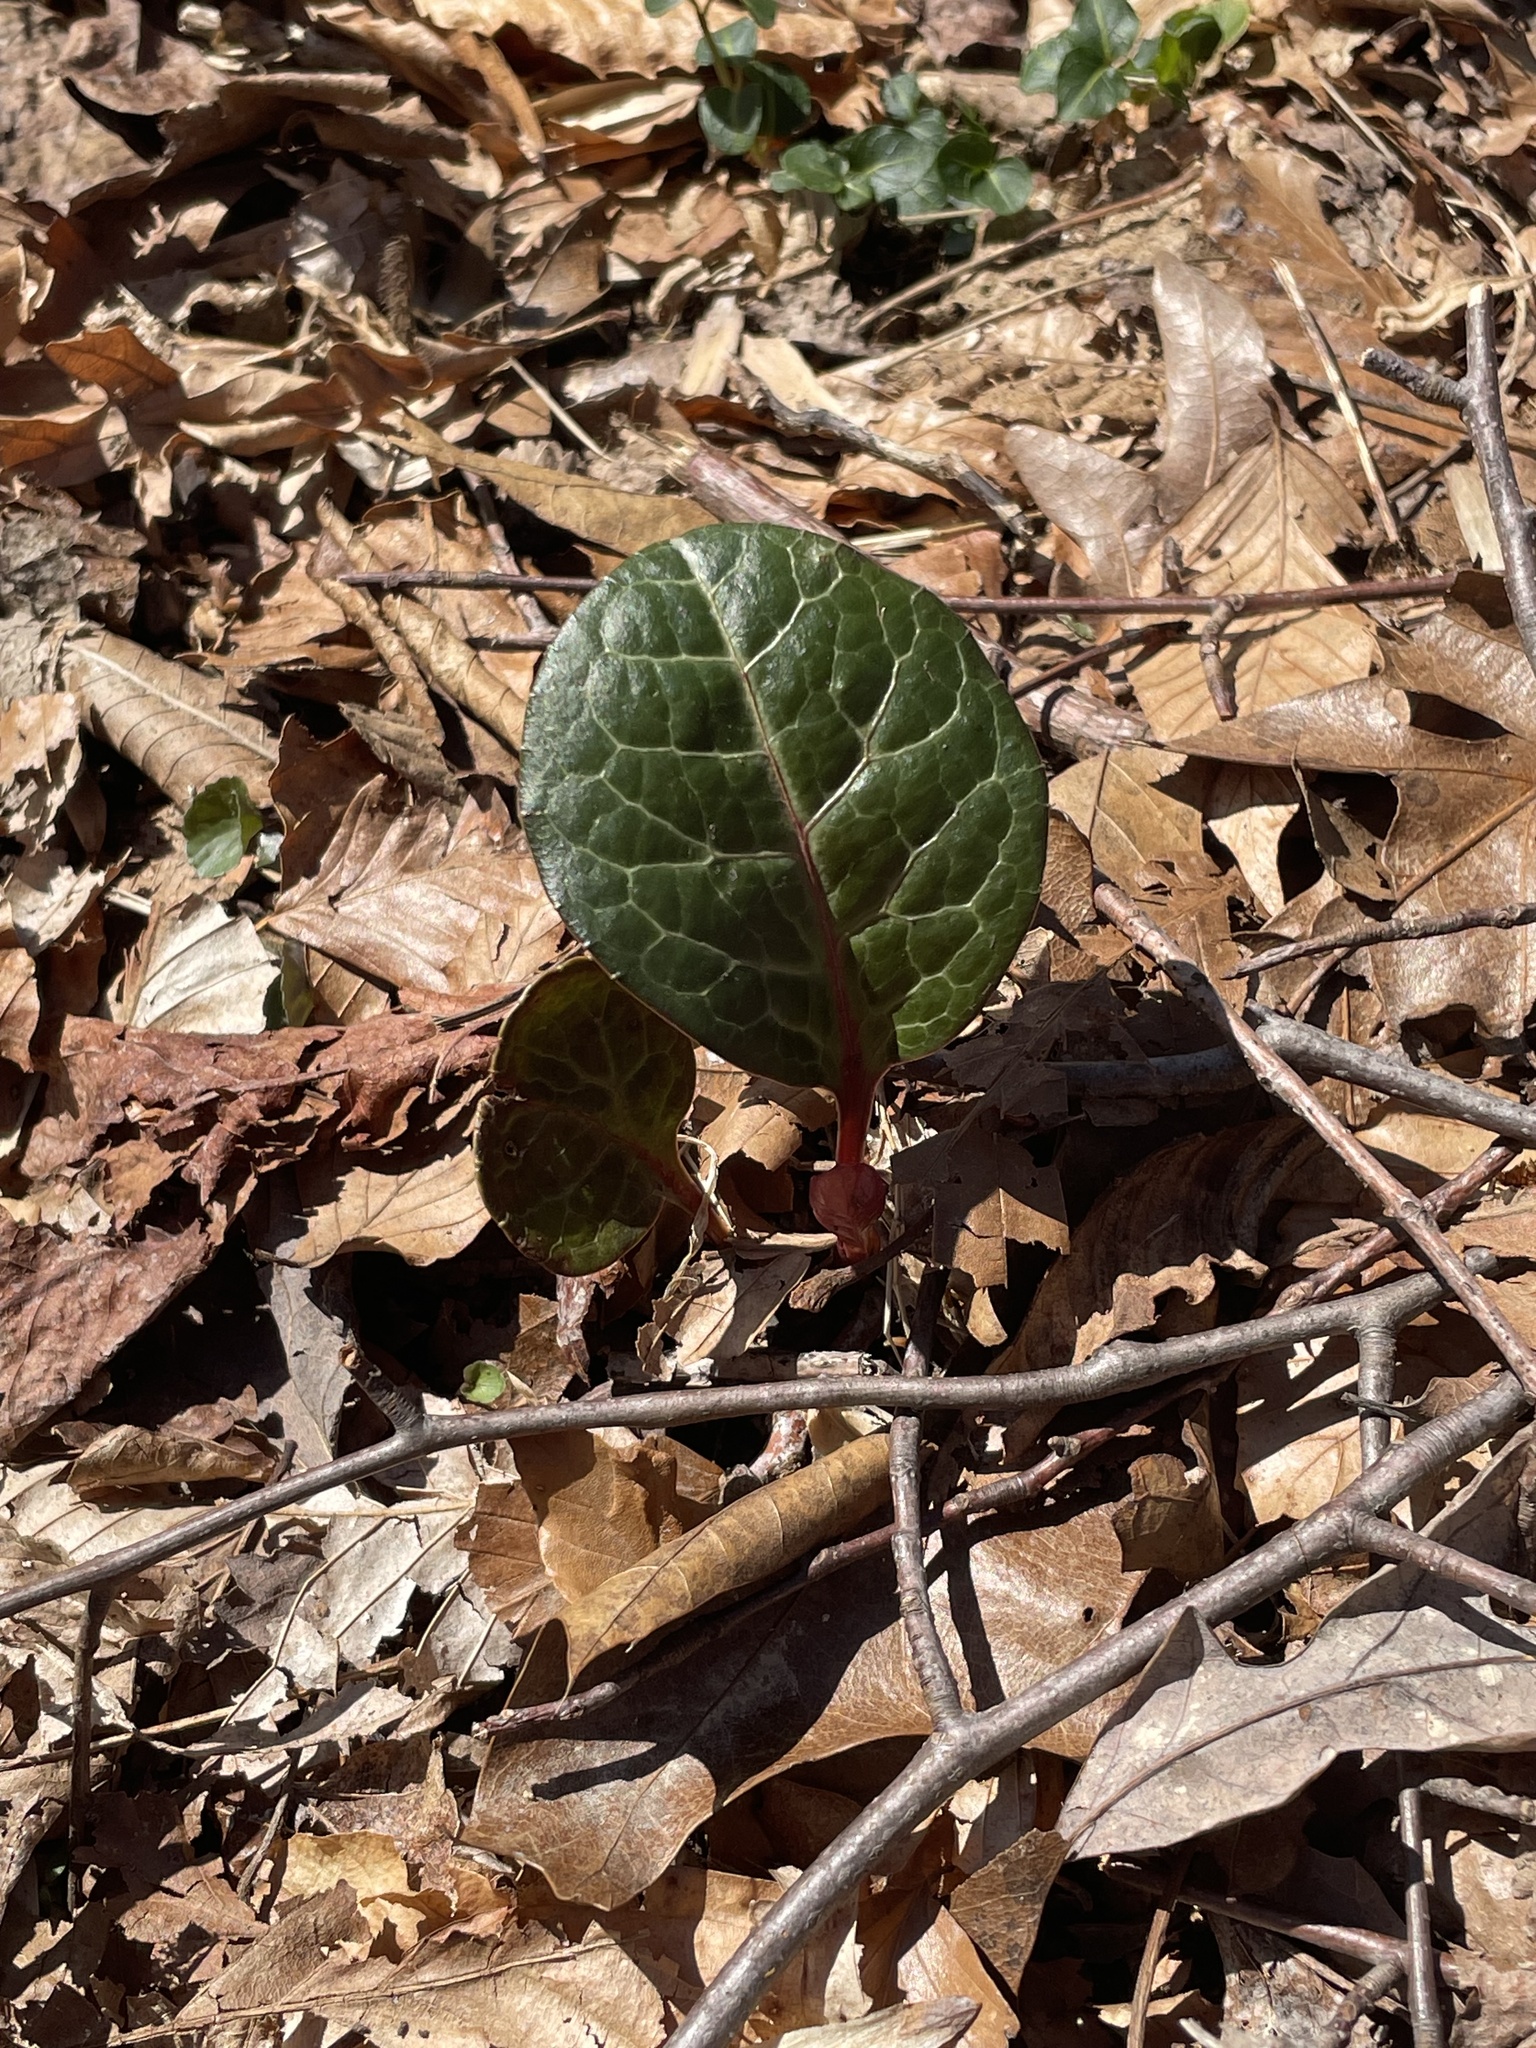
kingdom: Plantae
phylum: Tracheophyta
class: Magnoliopsida
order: Ericales
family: Ericaceae
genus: Pyrola
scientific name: Pyrola americana
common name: American wintergreen
